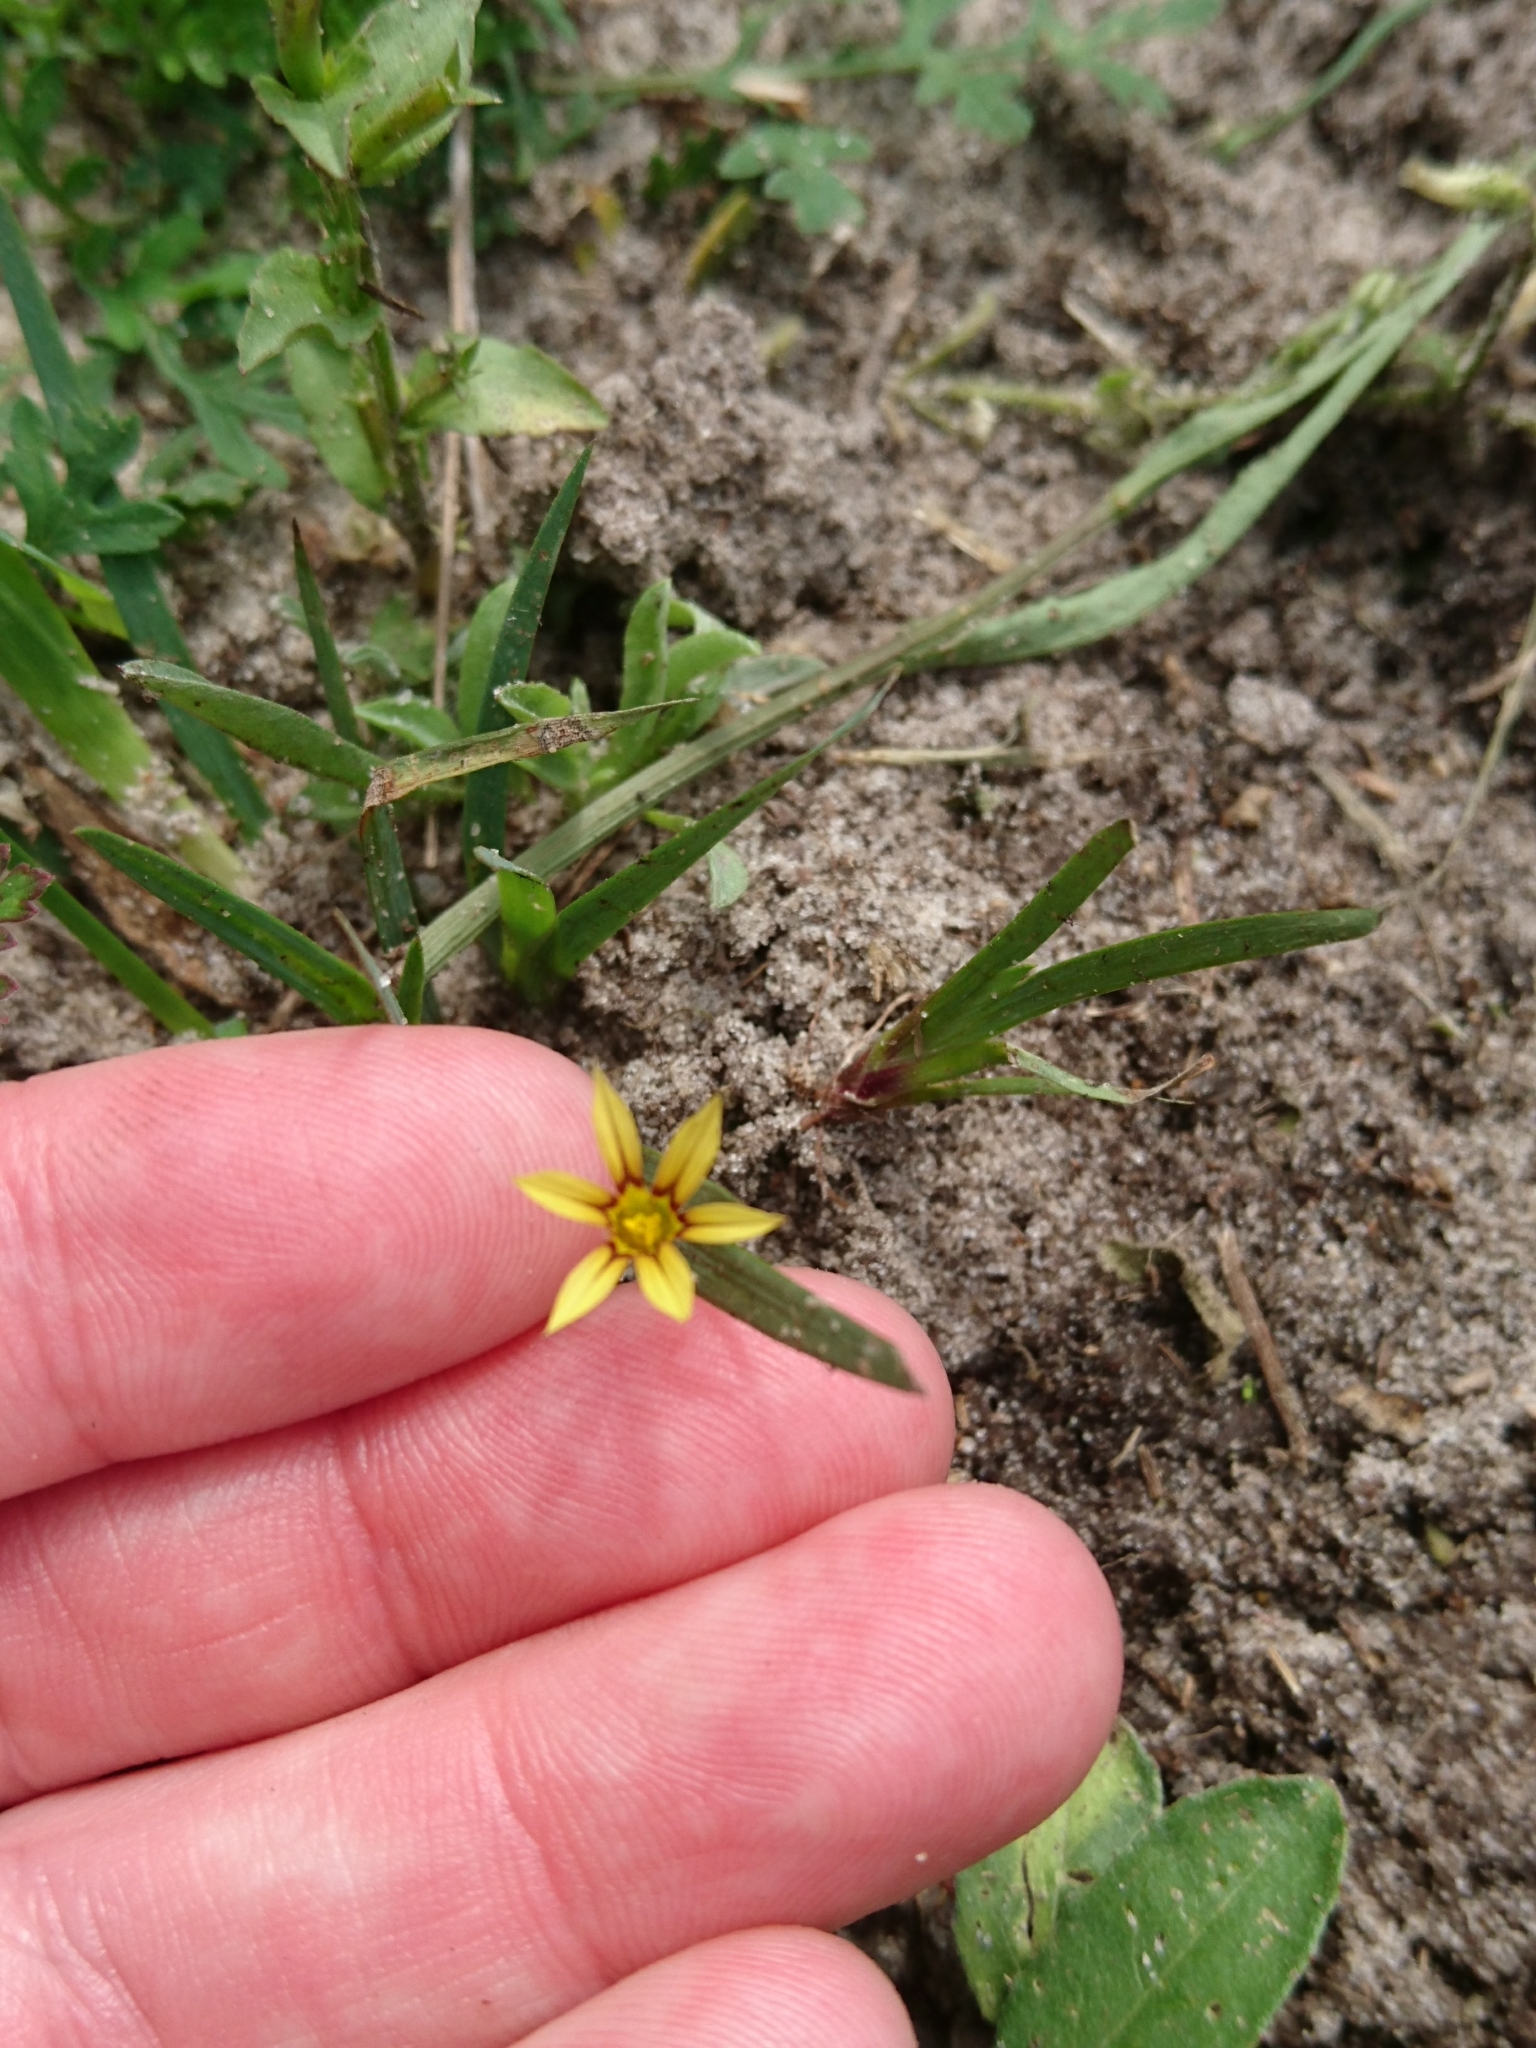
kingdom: Plantae
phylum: Tracheophyta
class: Liliopsida
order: Asparagales
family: Iridaceae
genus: Sisyrinchium
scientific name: Sisyrinchium micranthum
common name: Bermuda pigroot
